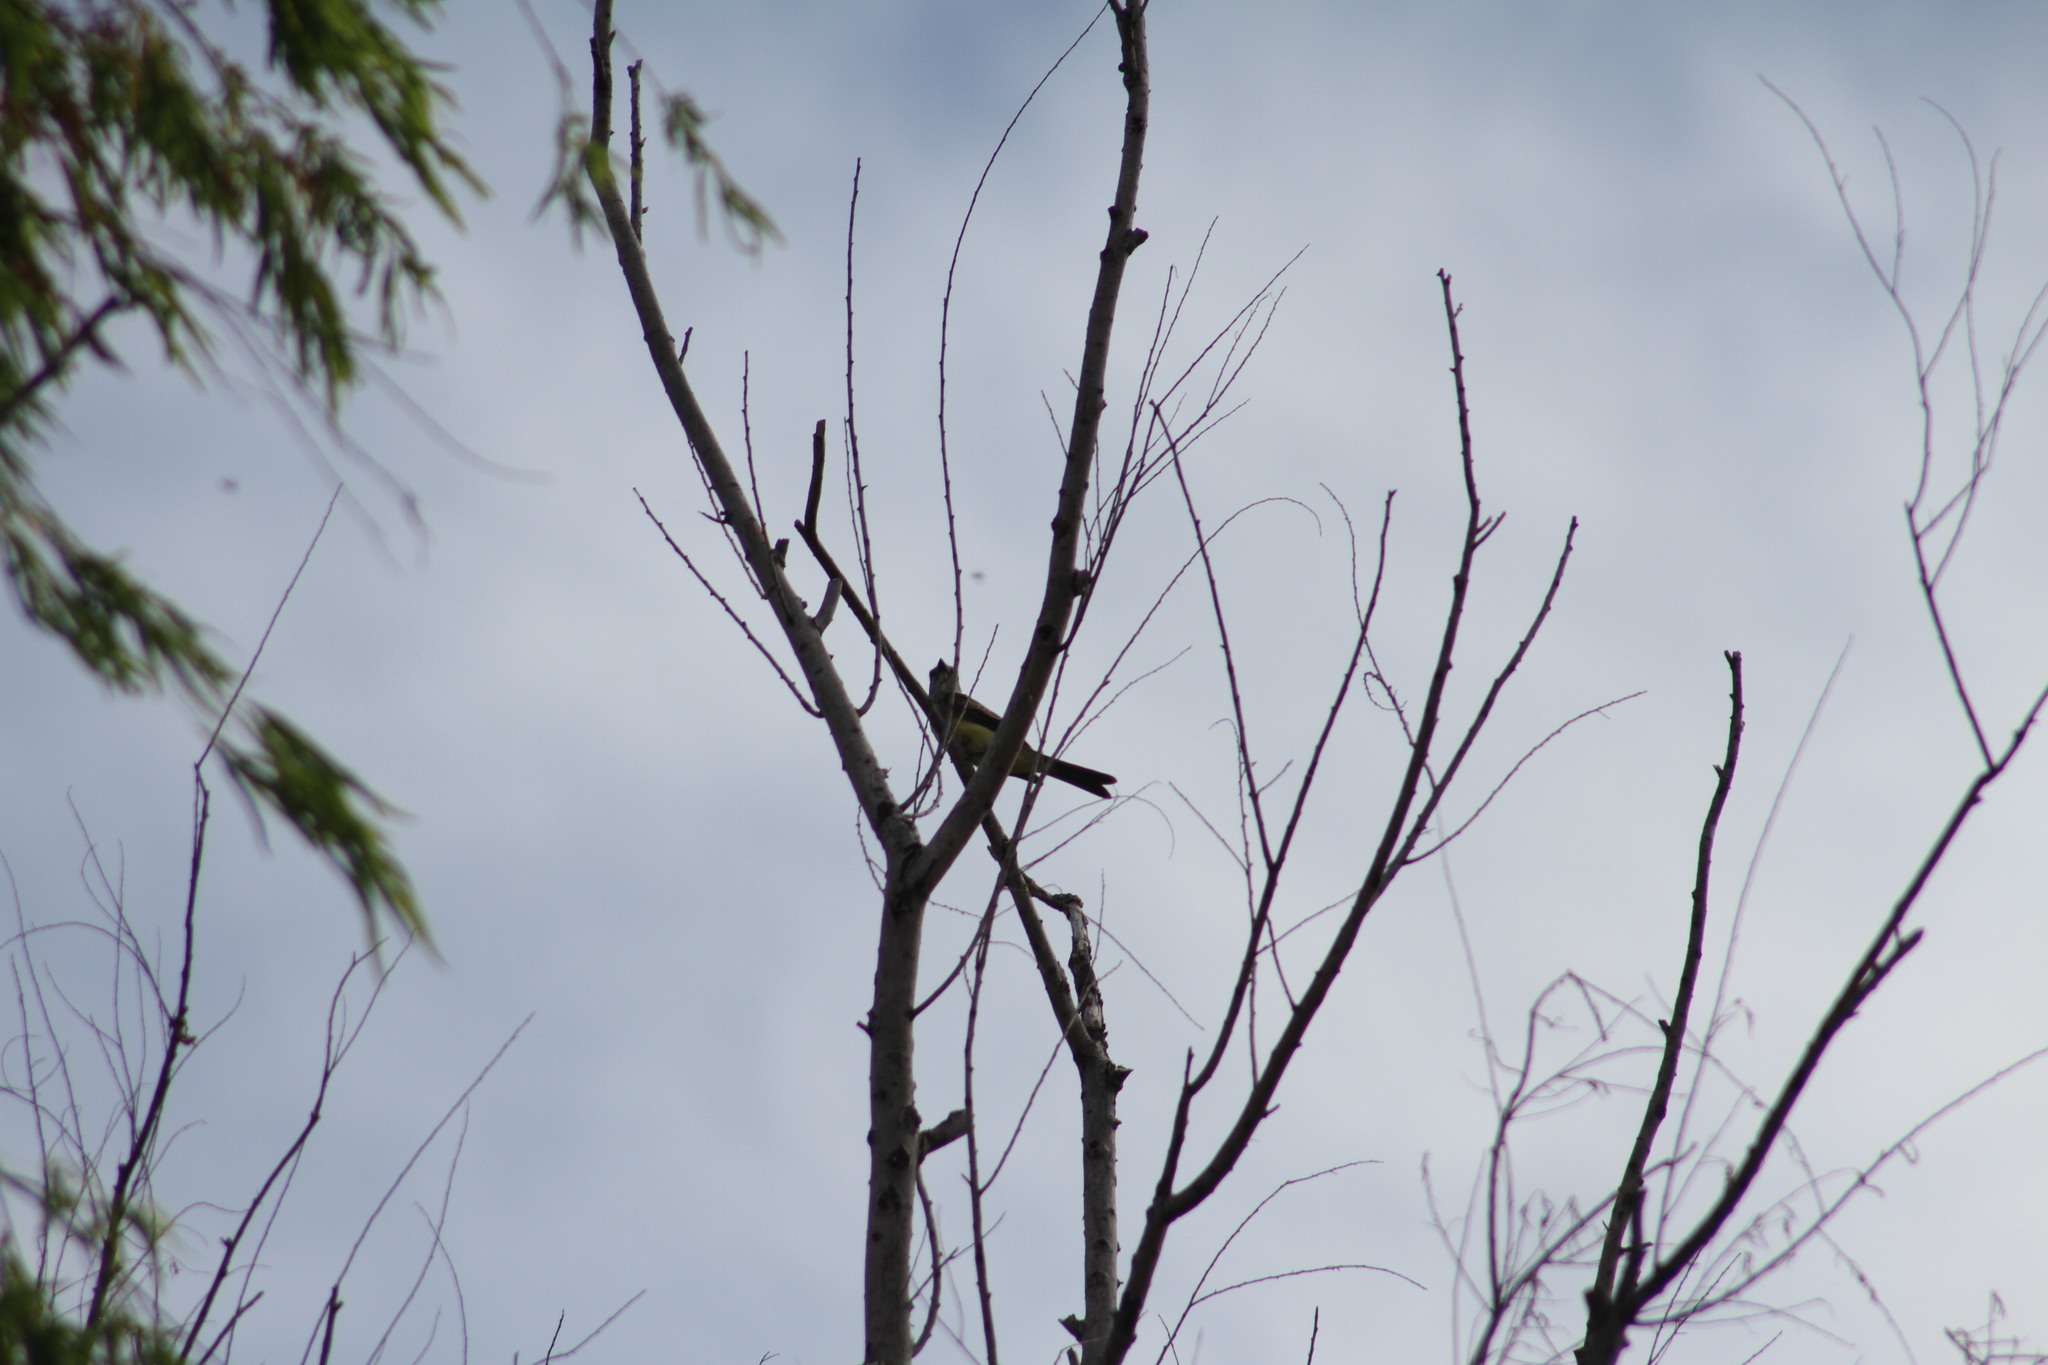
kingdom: Animalia
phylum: Chordata
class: Aves
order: Passeriformes
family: Tyrannidae
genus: Tyrannus
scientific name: Tyrannus melancholicus
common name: Tropical kingbird
